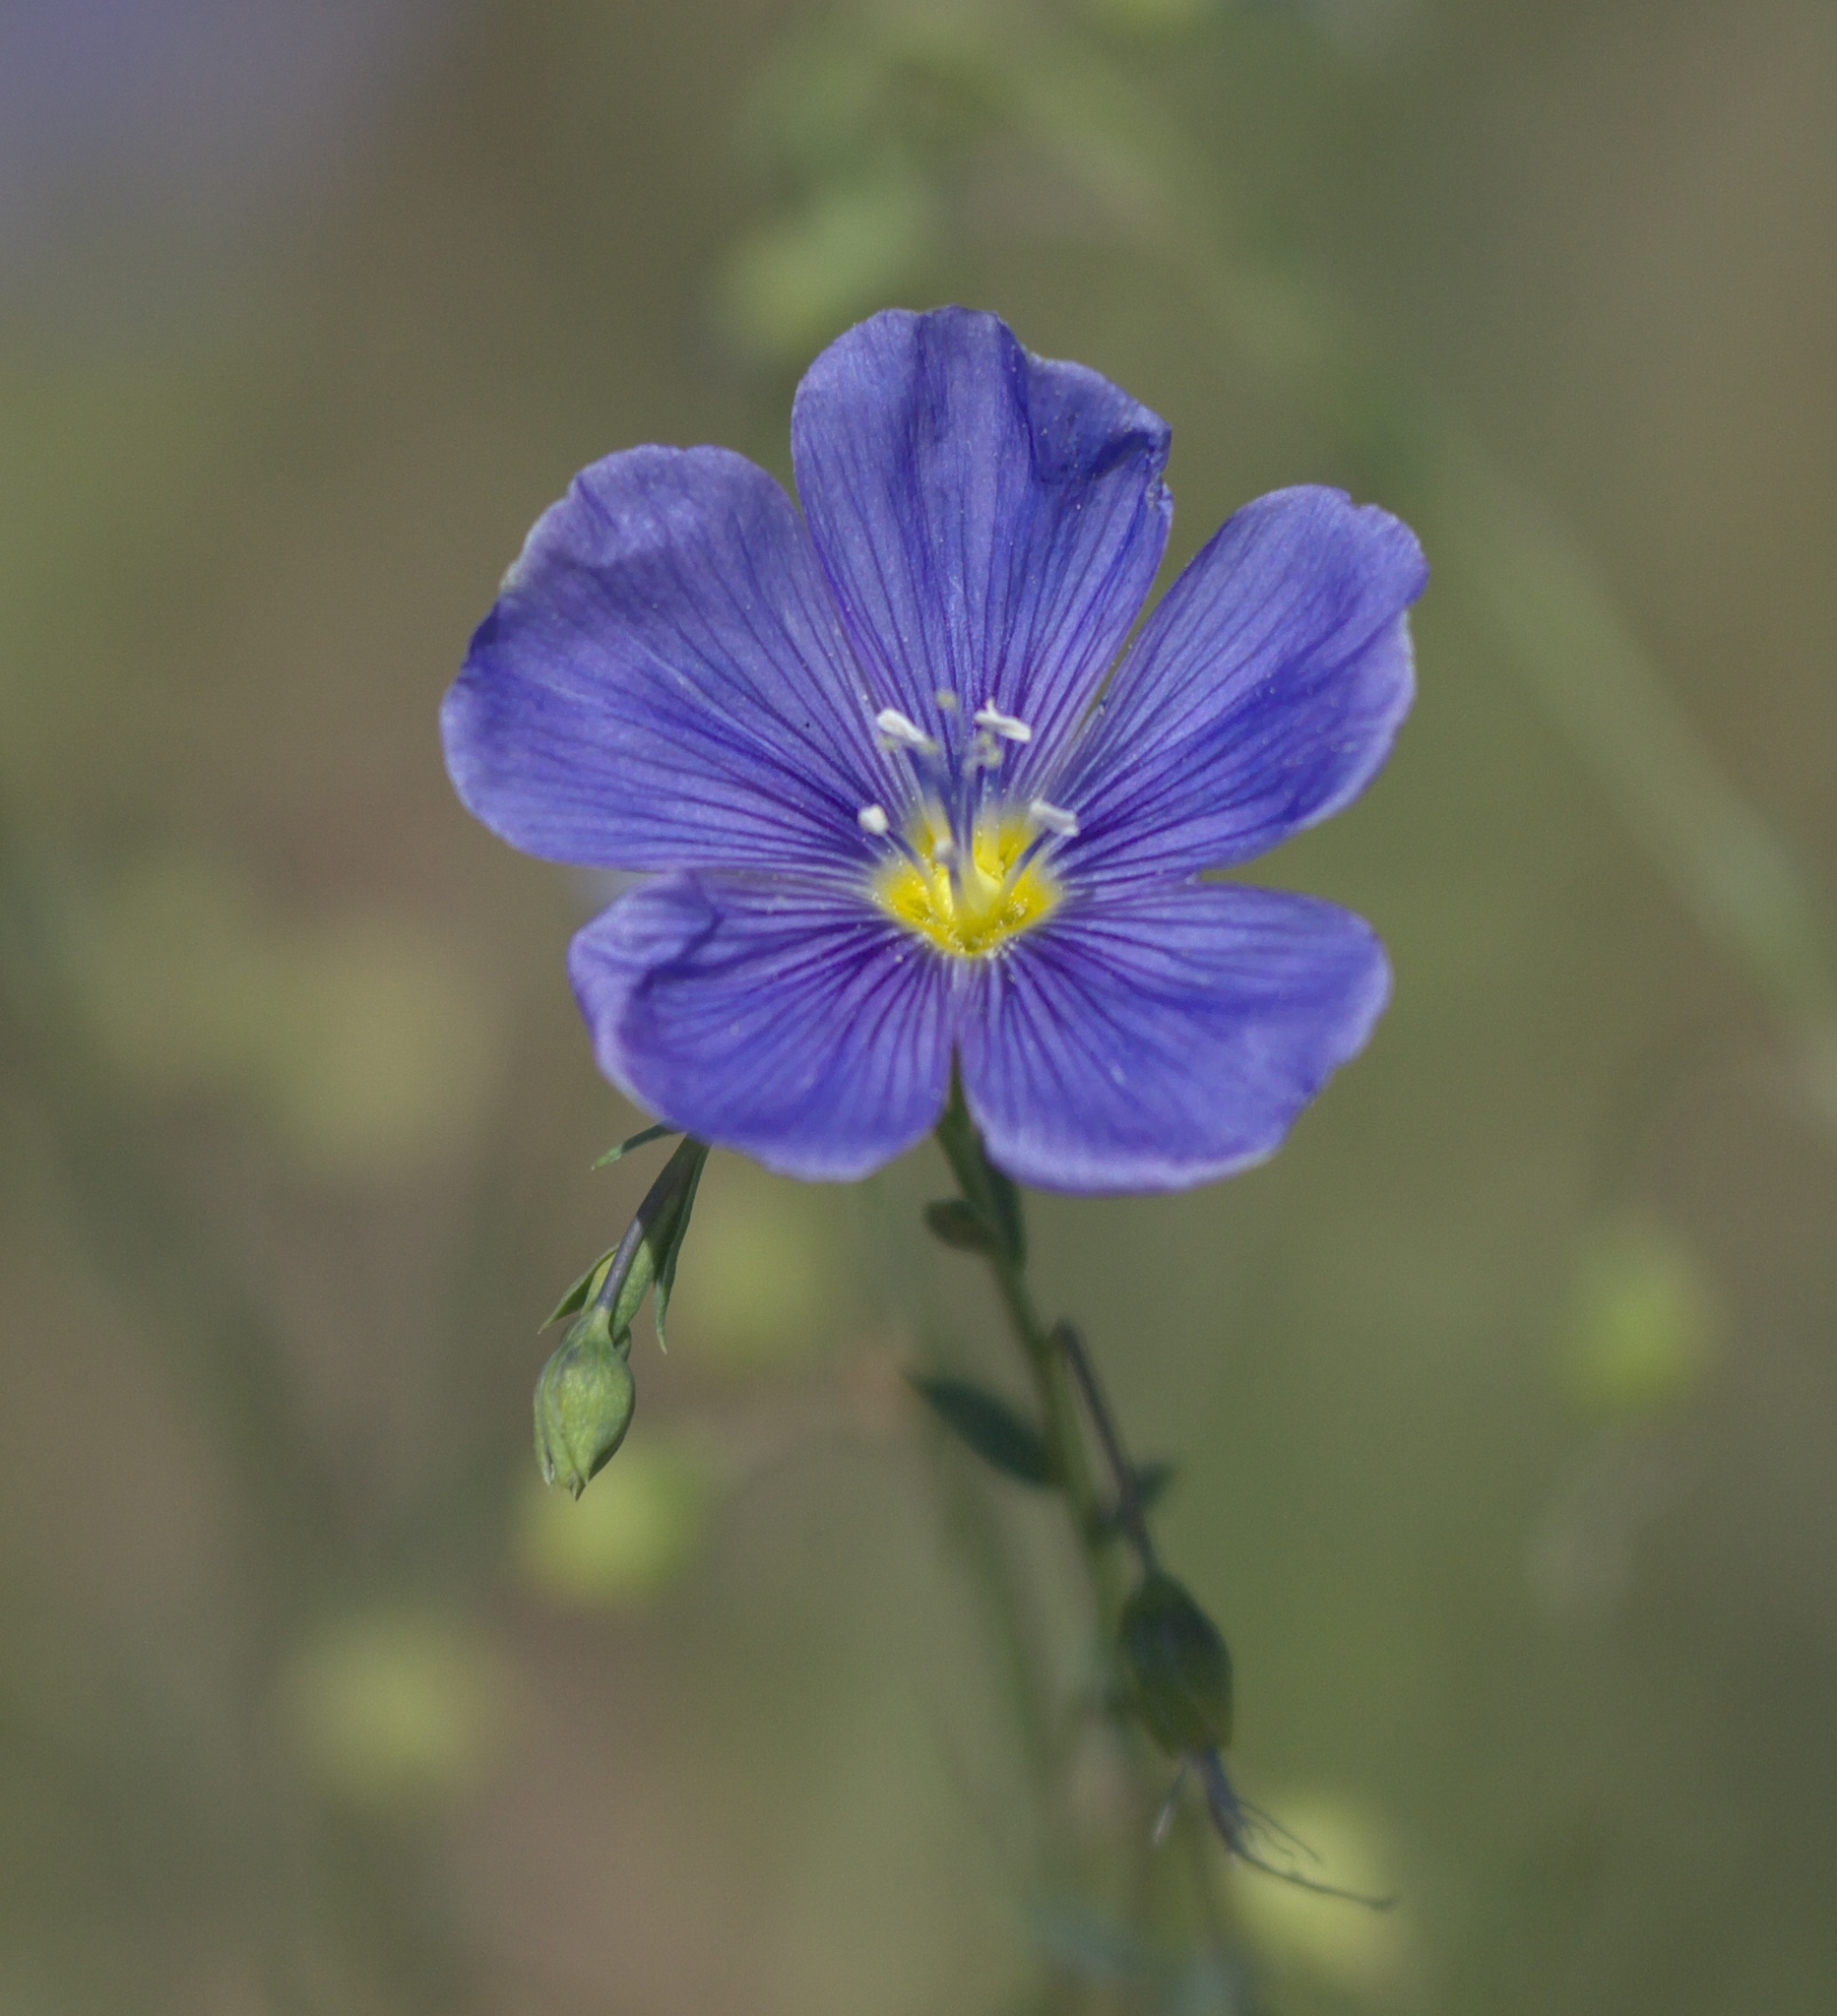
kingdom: Plantae
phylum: Tracheophyta
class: Magnoliopsida
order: Malpighiales
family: Linaceae
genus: Linum
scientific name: Linum lewisii
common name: Prairie flax
